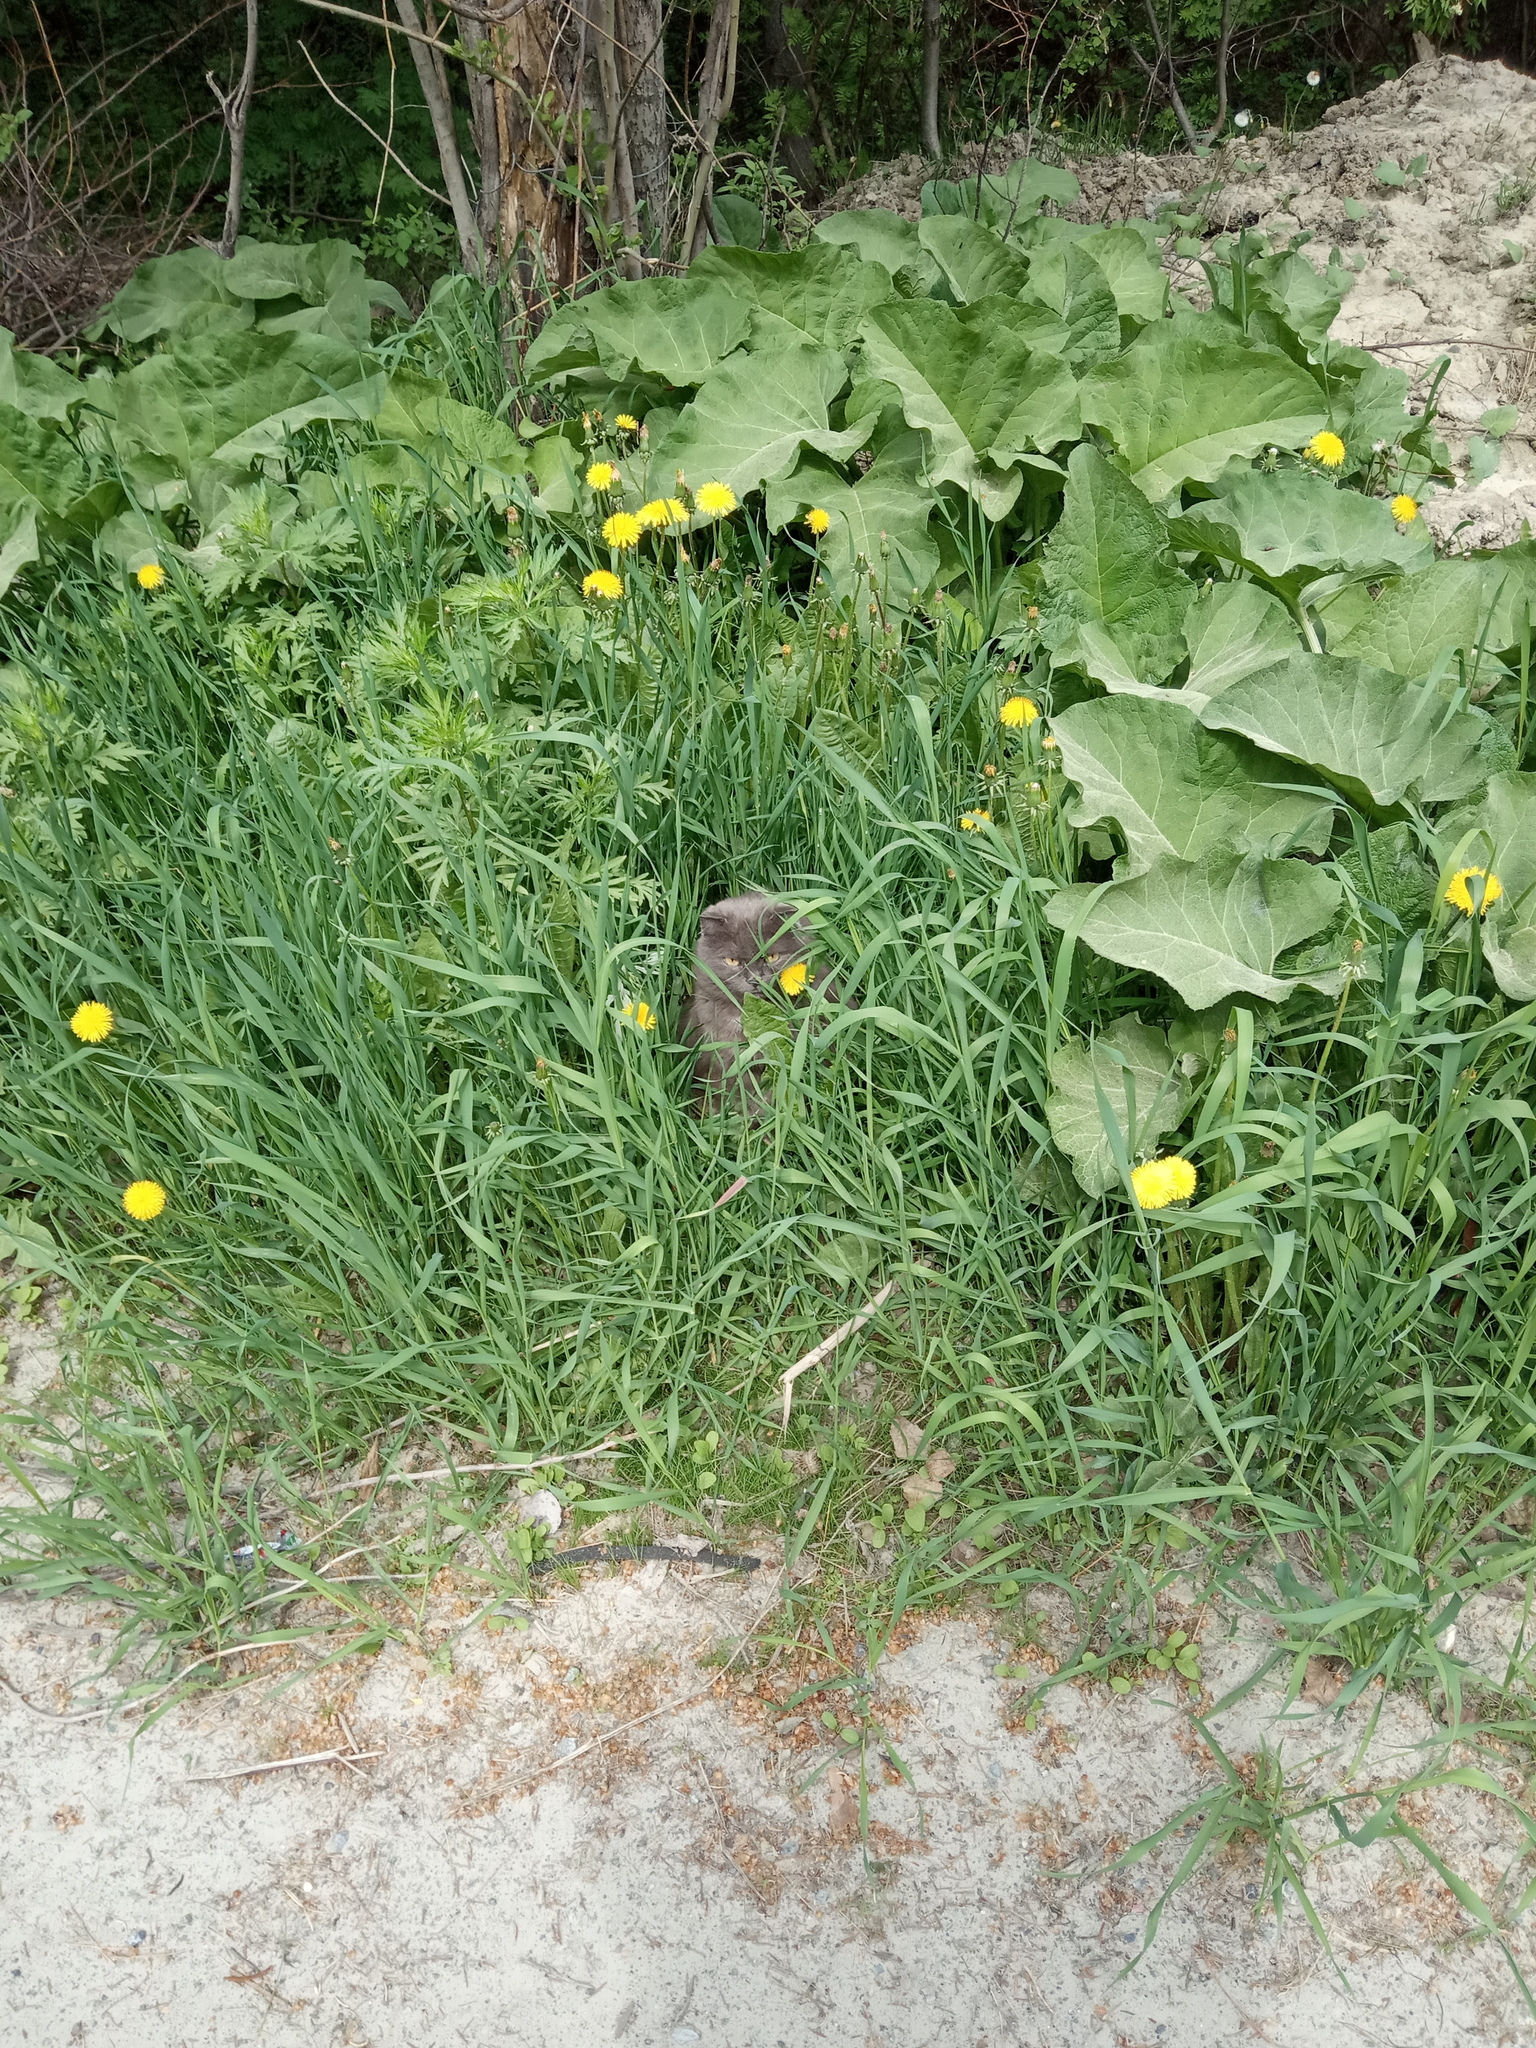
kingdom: Plantae
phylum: Tracheophyta
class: Magnoliopsida
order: Asterales
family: Asteraceae
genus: Arctium
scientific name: Arctium tomentosum
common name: Woolly burdock
